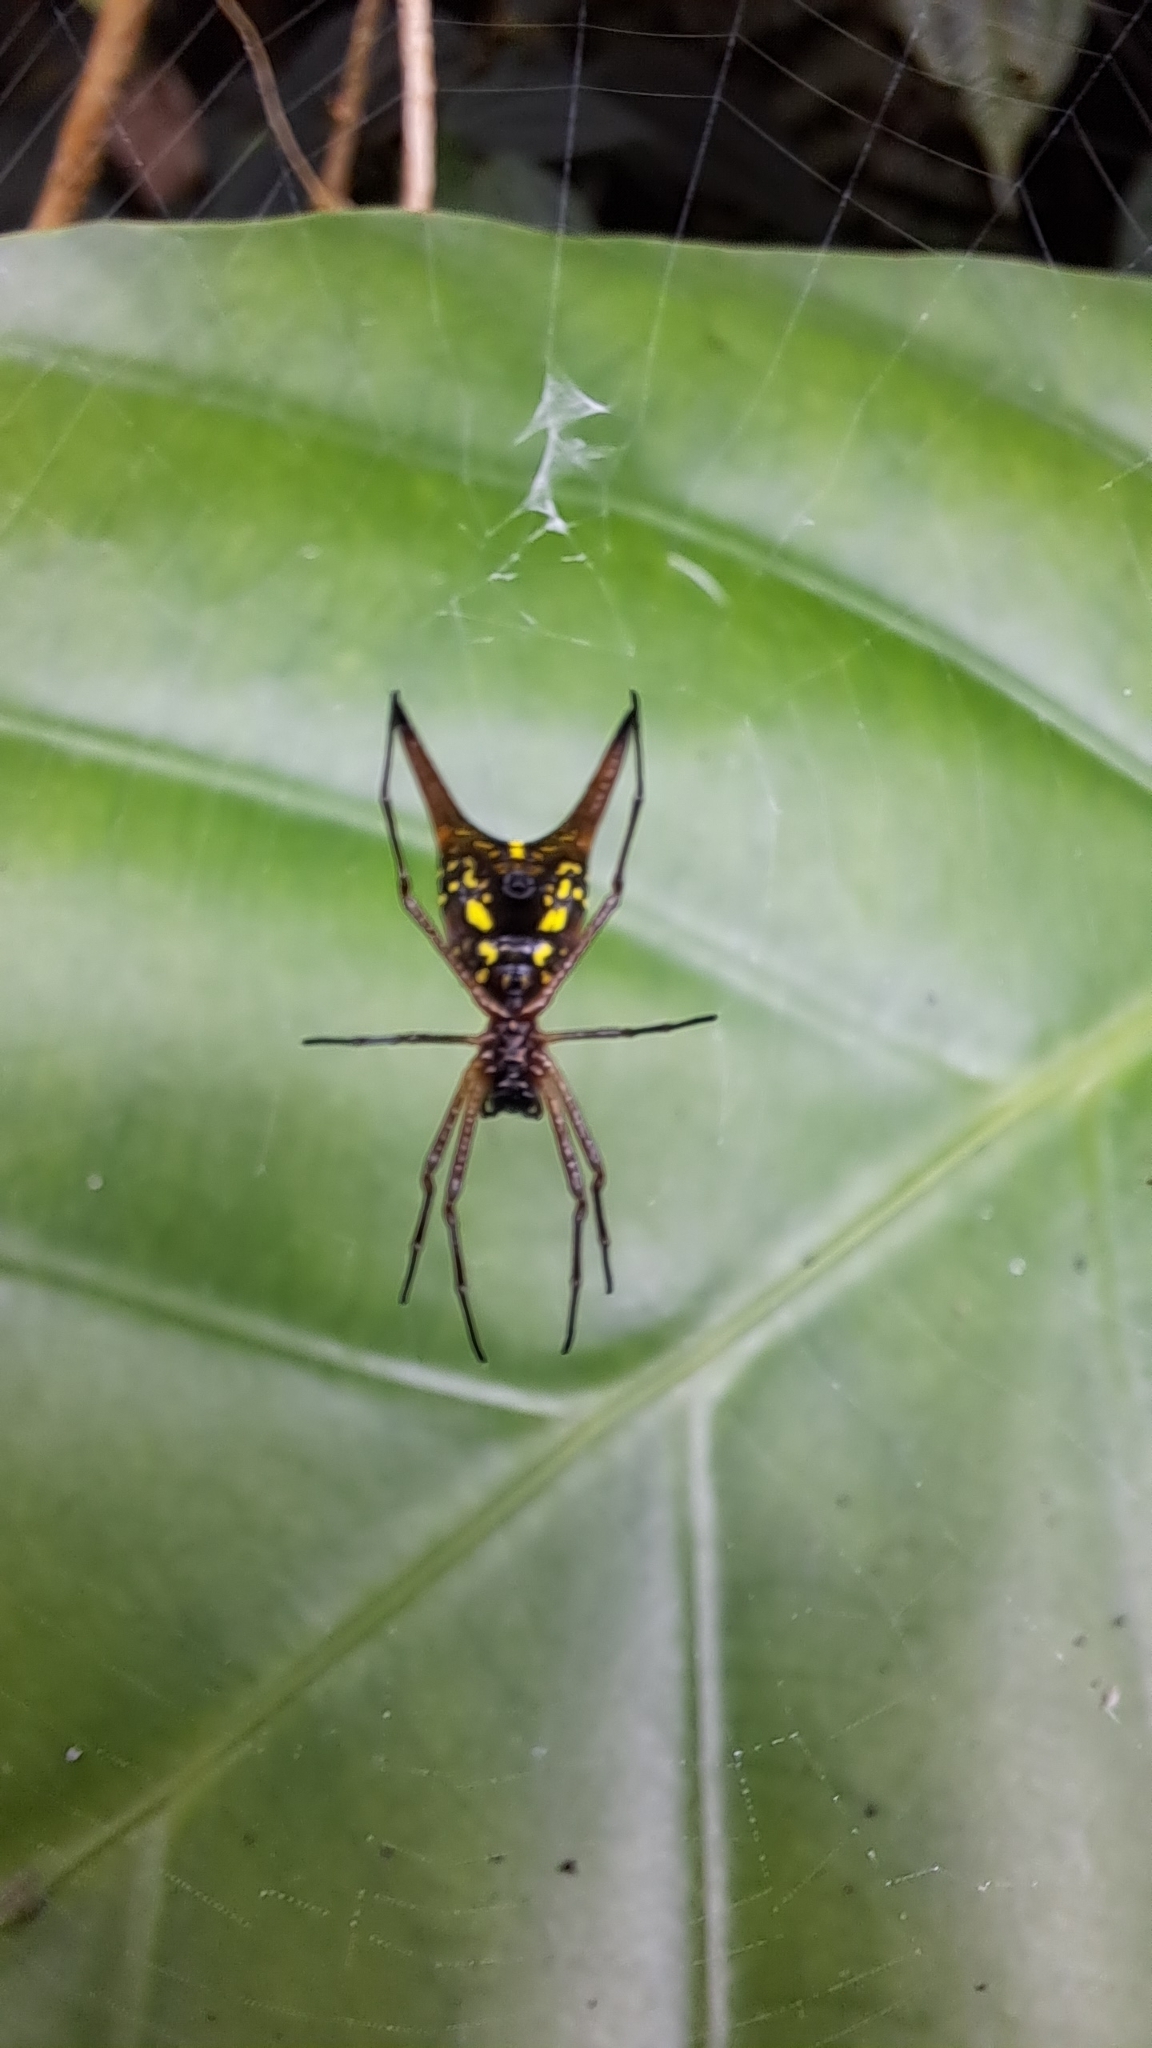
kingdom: Animalia
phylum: Arthropoda
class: Arachnida
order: Araneae
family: Araneidae
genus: Micrathena
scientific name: Micrathena sexspinosa
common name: Orb weavers
